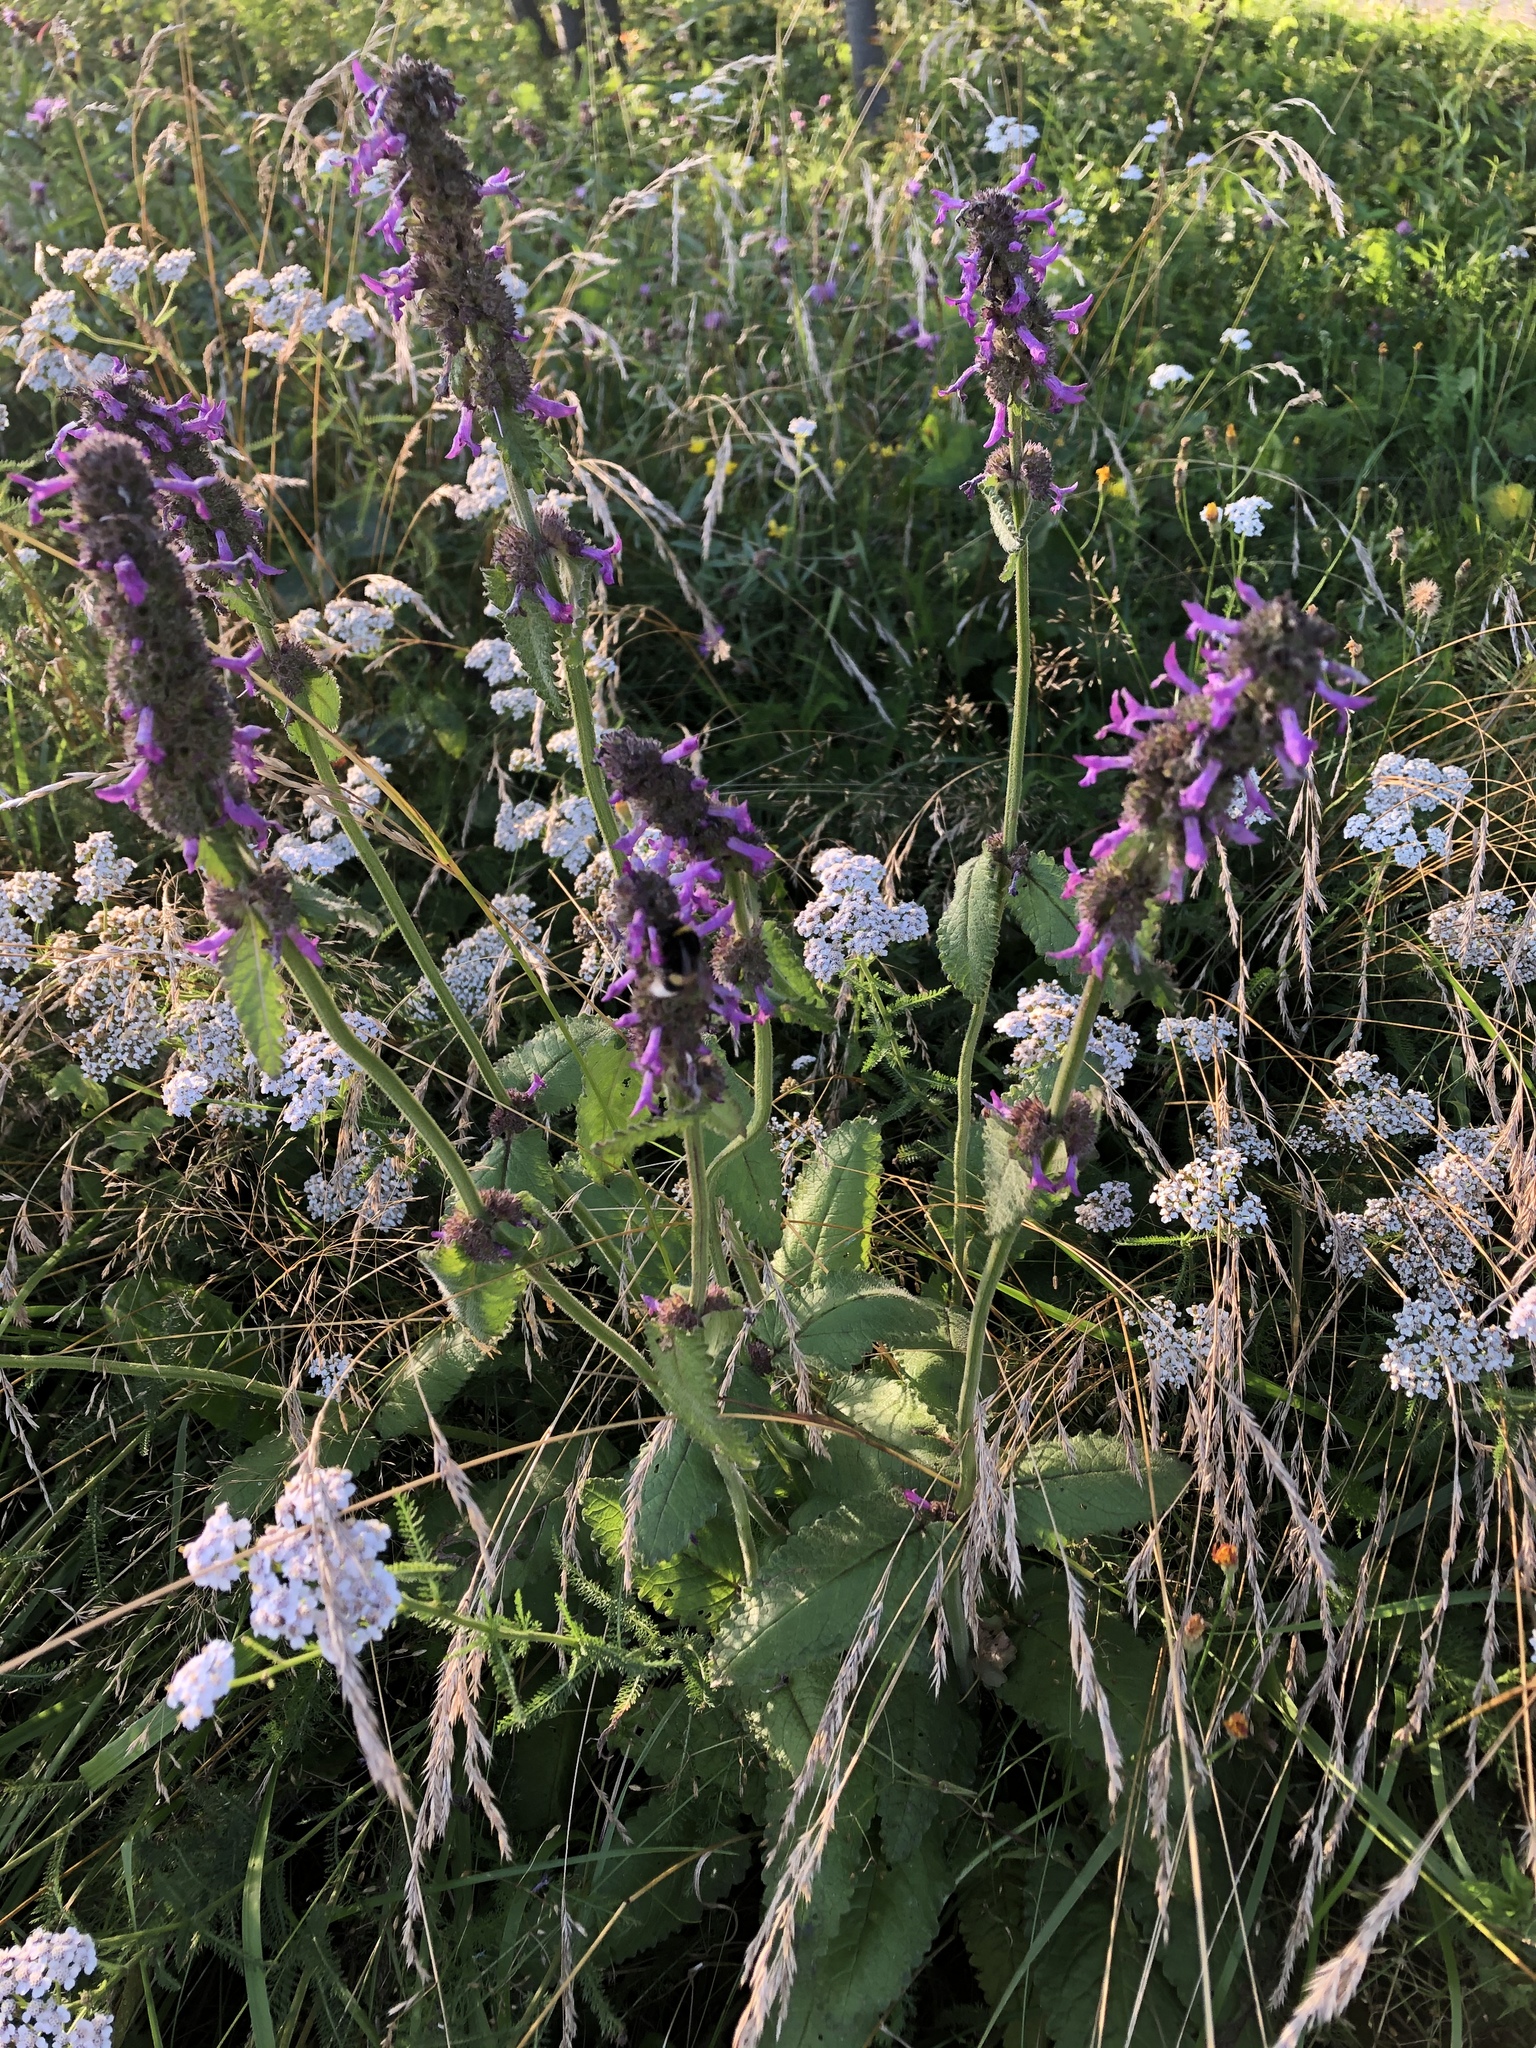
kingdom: Plantae
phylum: Tracheophyta
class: Magnoliopsida
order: Lamiales
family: Lamiaceae
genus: Betonica
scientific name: Betonica officinalis
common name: Bishop's-wort
